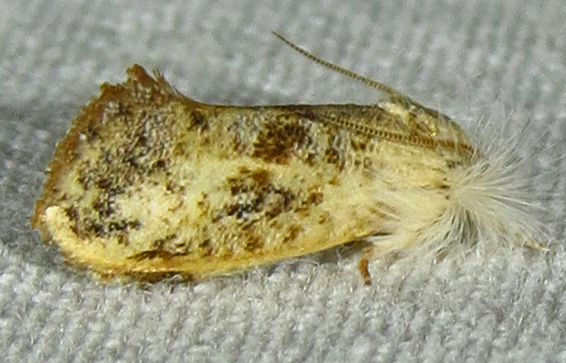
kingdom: Animalia
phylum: Arthropoda
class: Insecta
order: Lepidoptera
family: Tineidae
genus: Acrolophus
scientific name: Acrolophus mycetophagus
